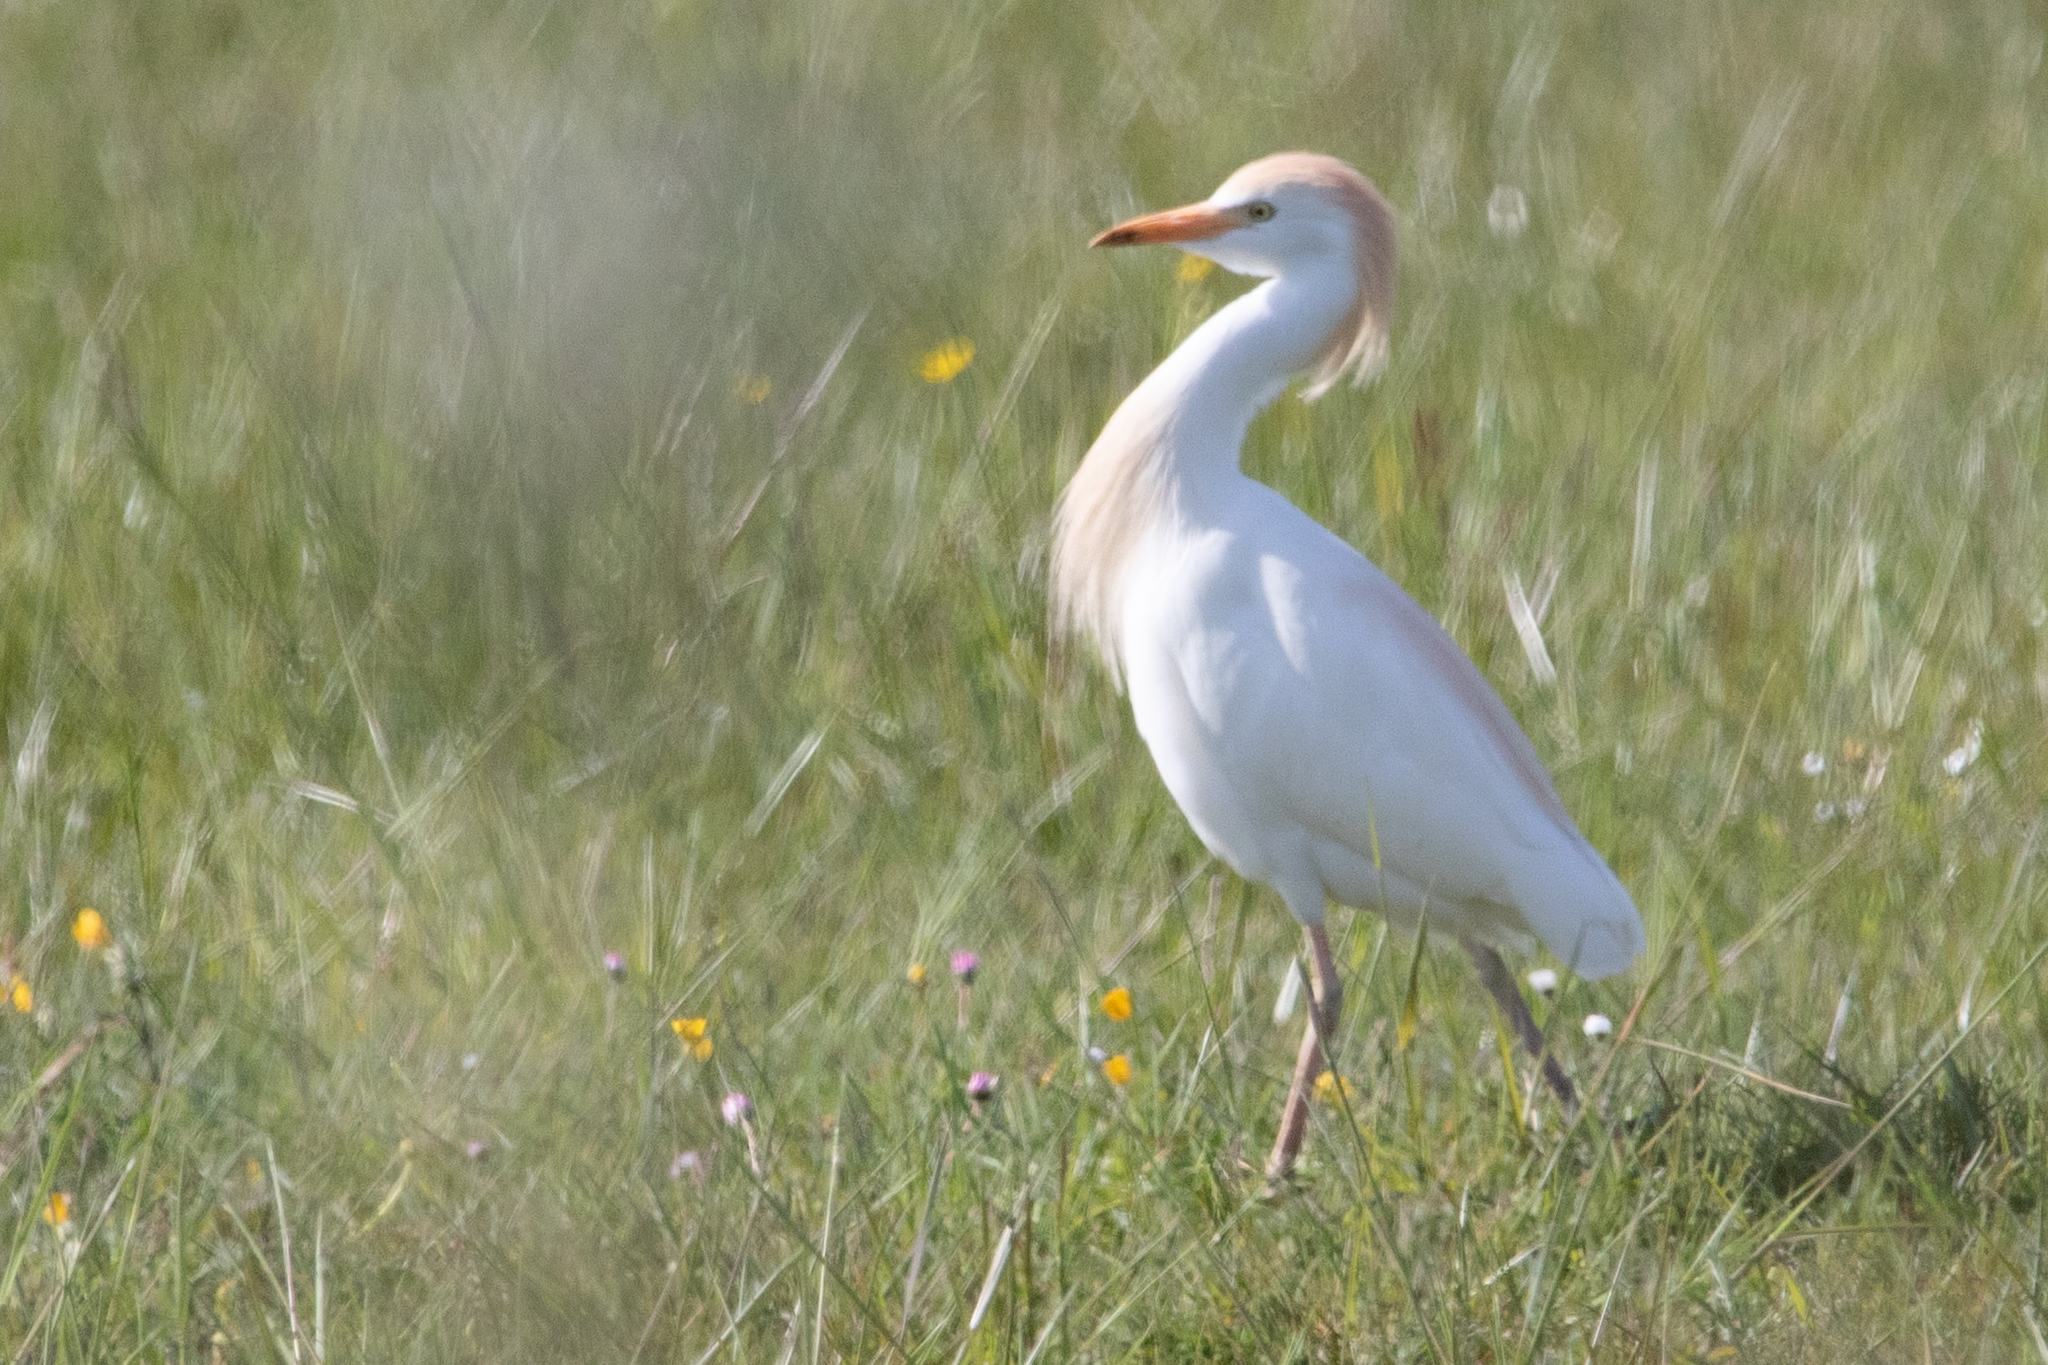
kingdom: Animalia
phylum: Chordata
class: Aves
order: Pelecaniformes
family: Ardeidae
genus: Bubulcus
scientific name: Bubulcus ibis
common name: Cattle egret
